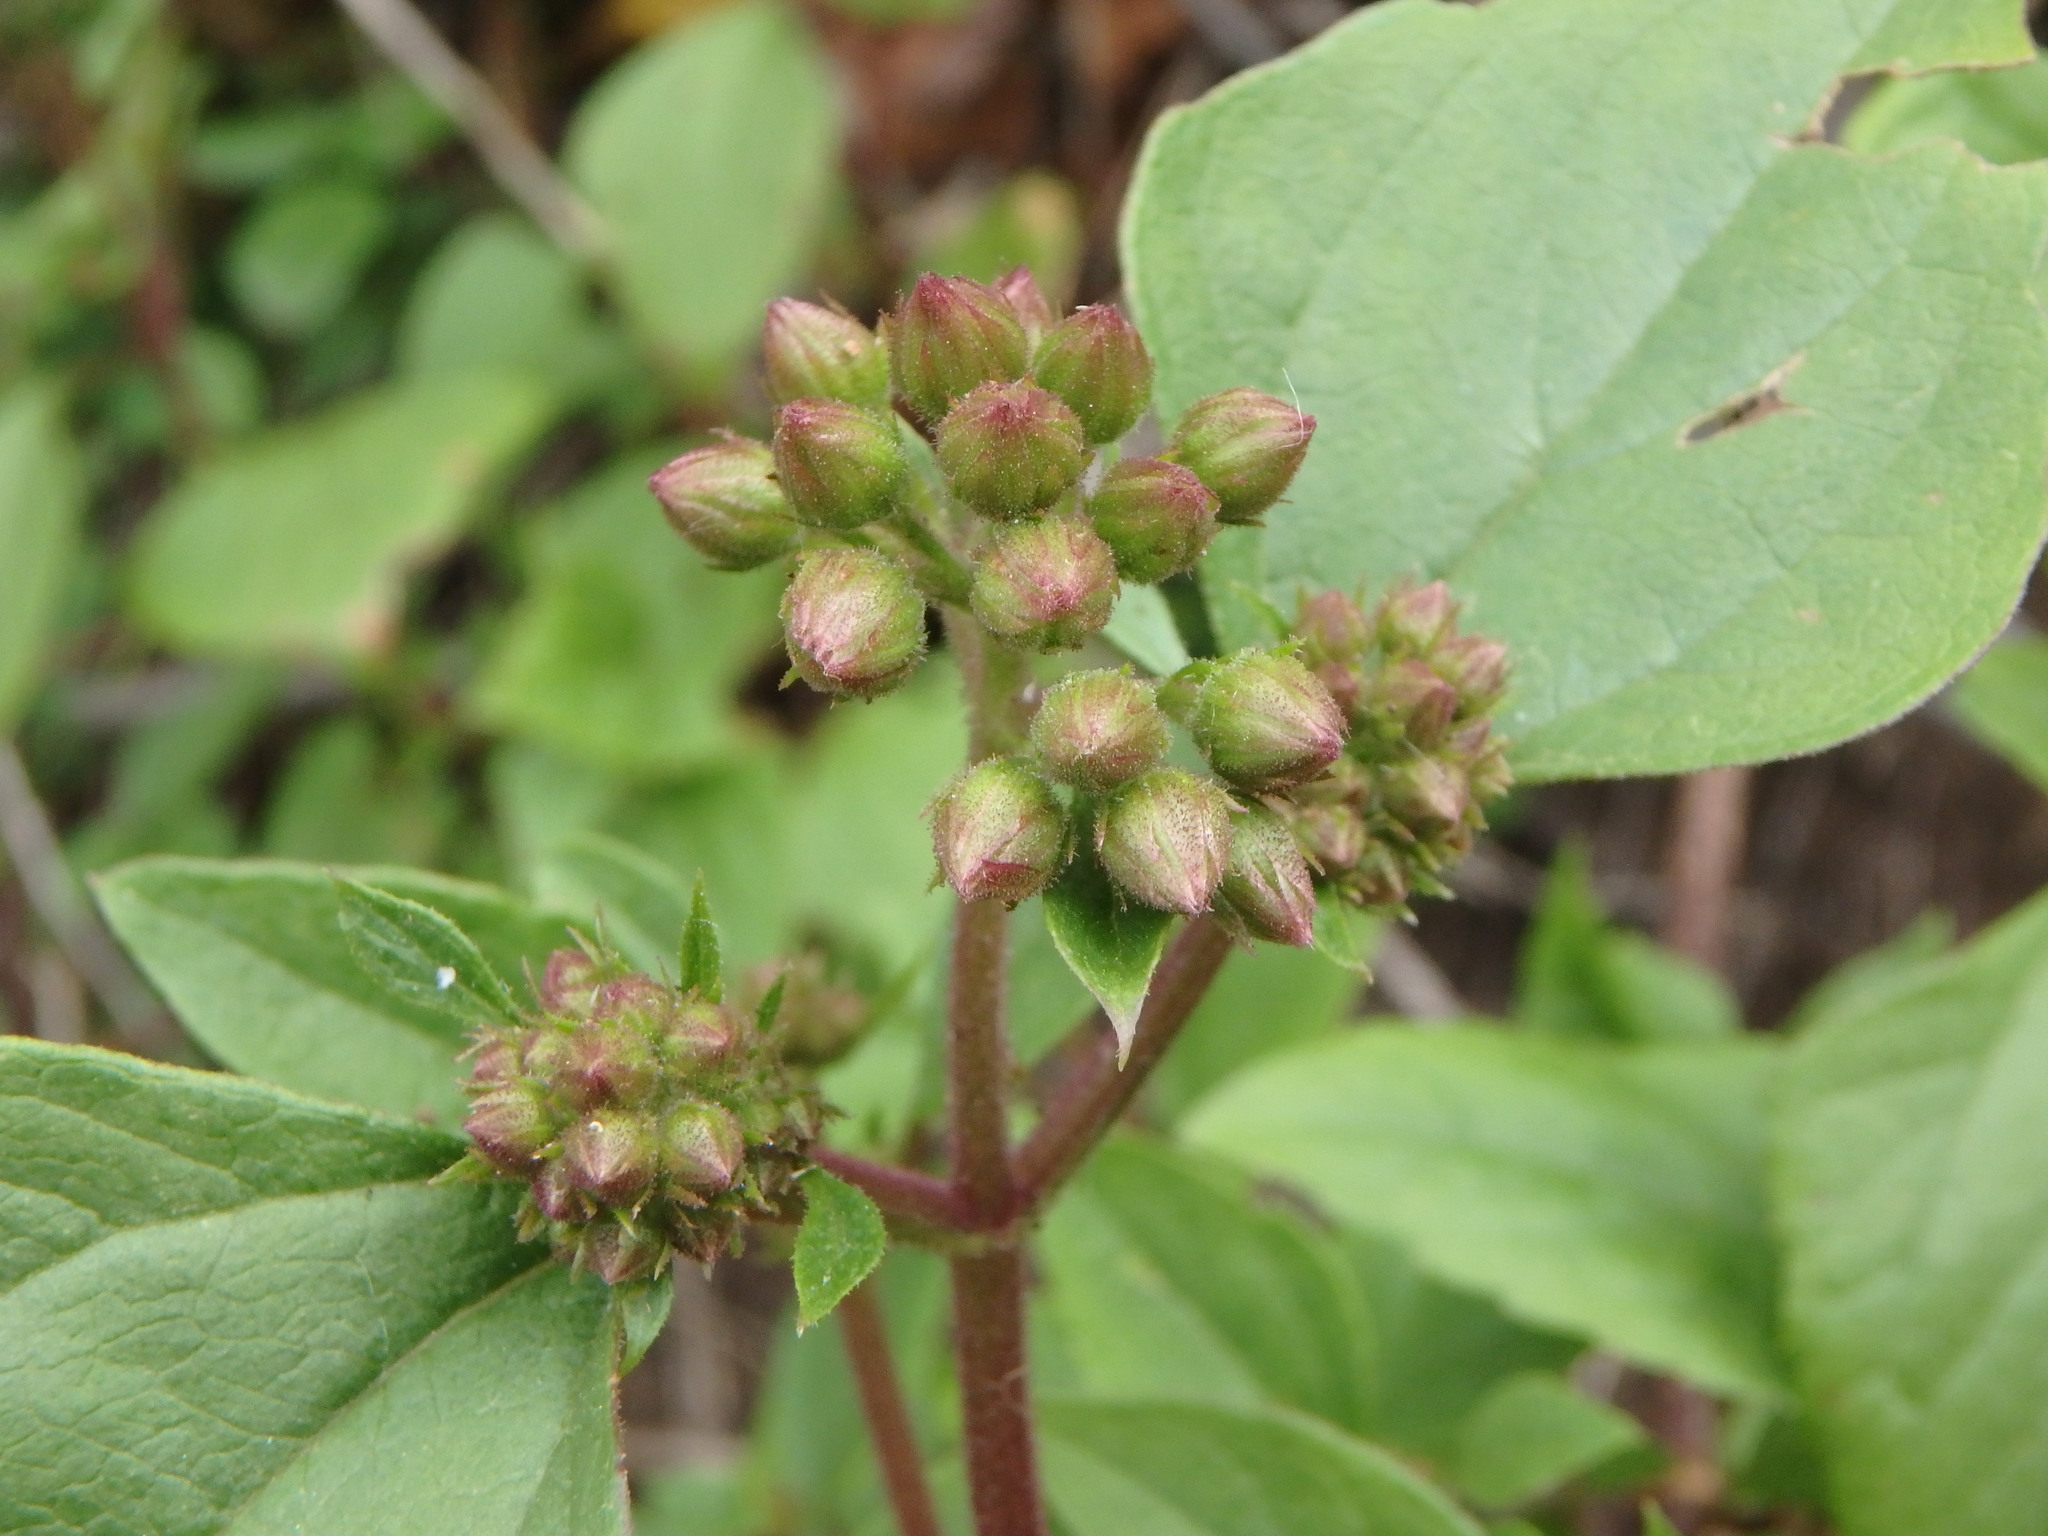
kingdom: Plantae
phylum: Tracheophyta
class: Magnoliopsida
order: Asterales
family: Asteraceae
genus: Ageratina
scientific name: Ageratina adenophora
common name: Sticky snakeroot
